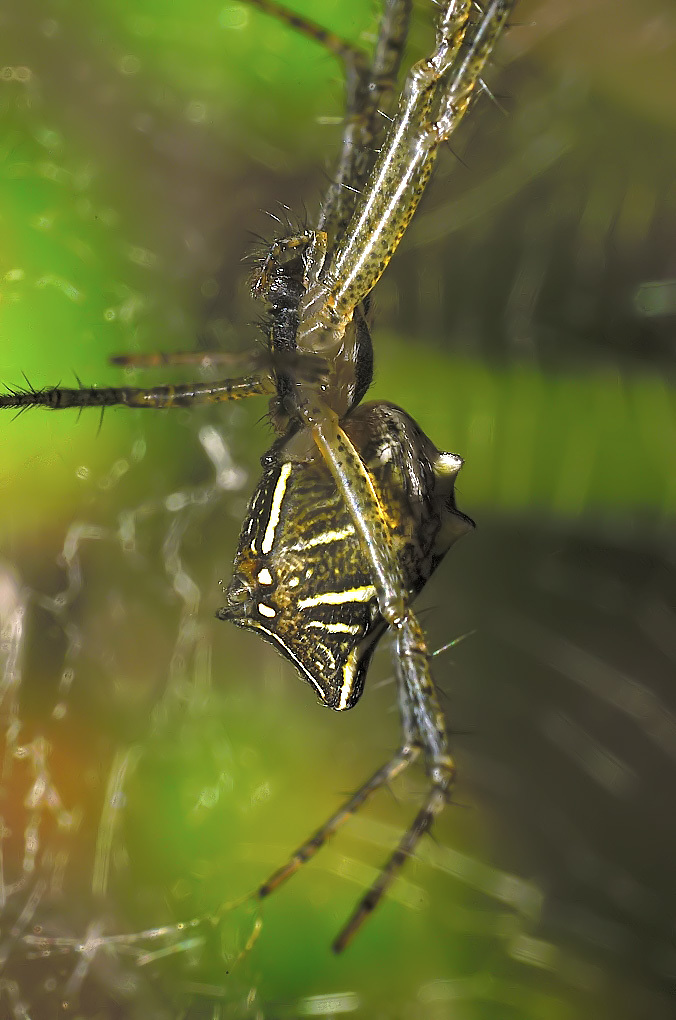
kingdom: Animalia
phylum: Arthropoda
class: Arachnida
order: Araneae
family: Araneidae
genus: Cyrtophora
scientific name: Cyrtophora cicatrosa
